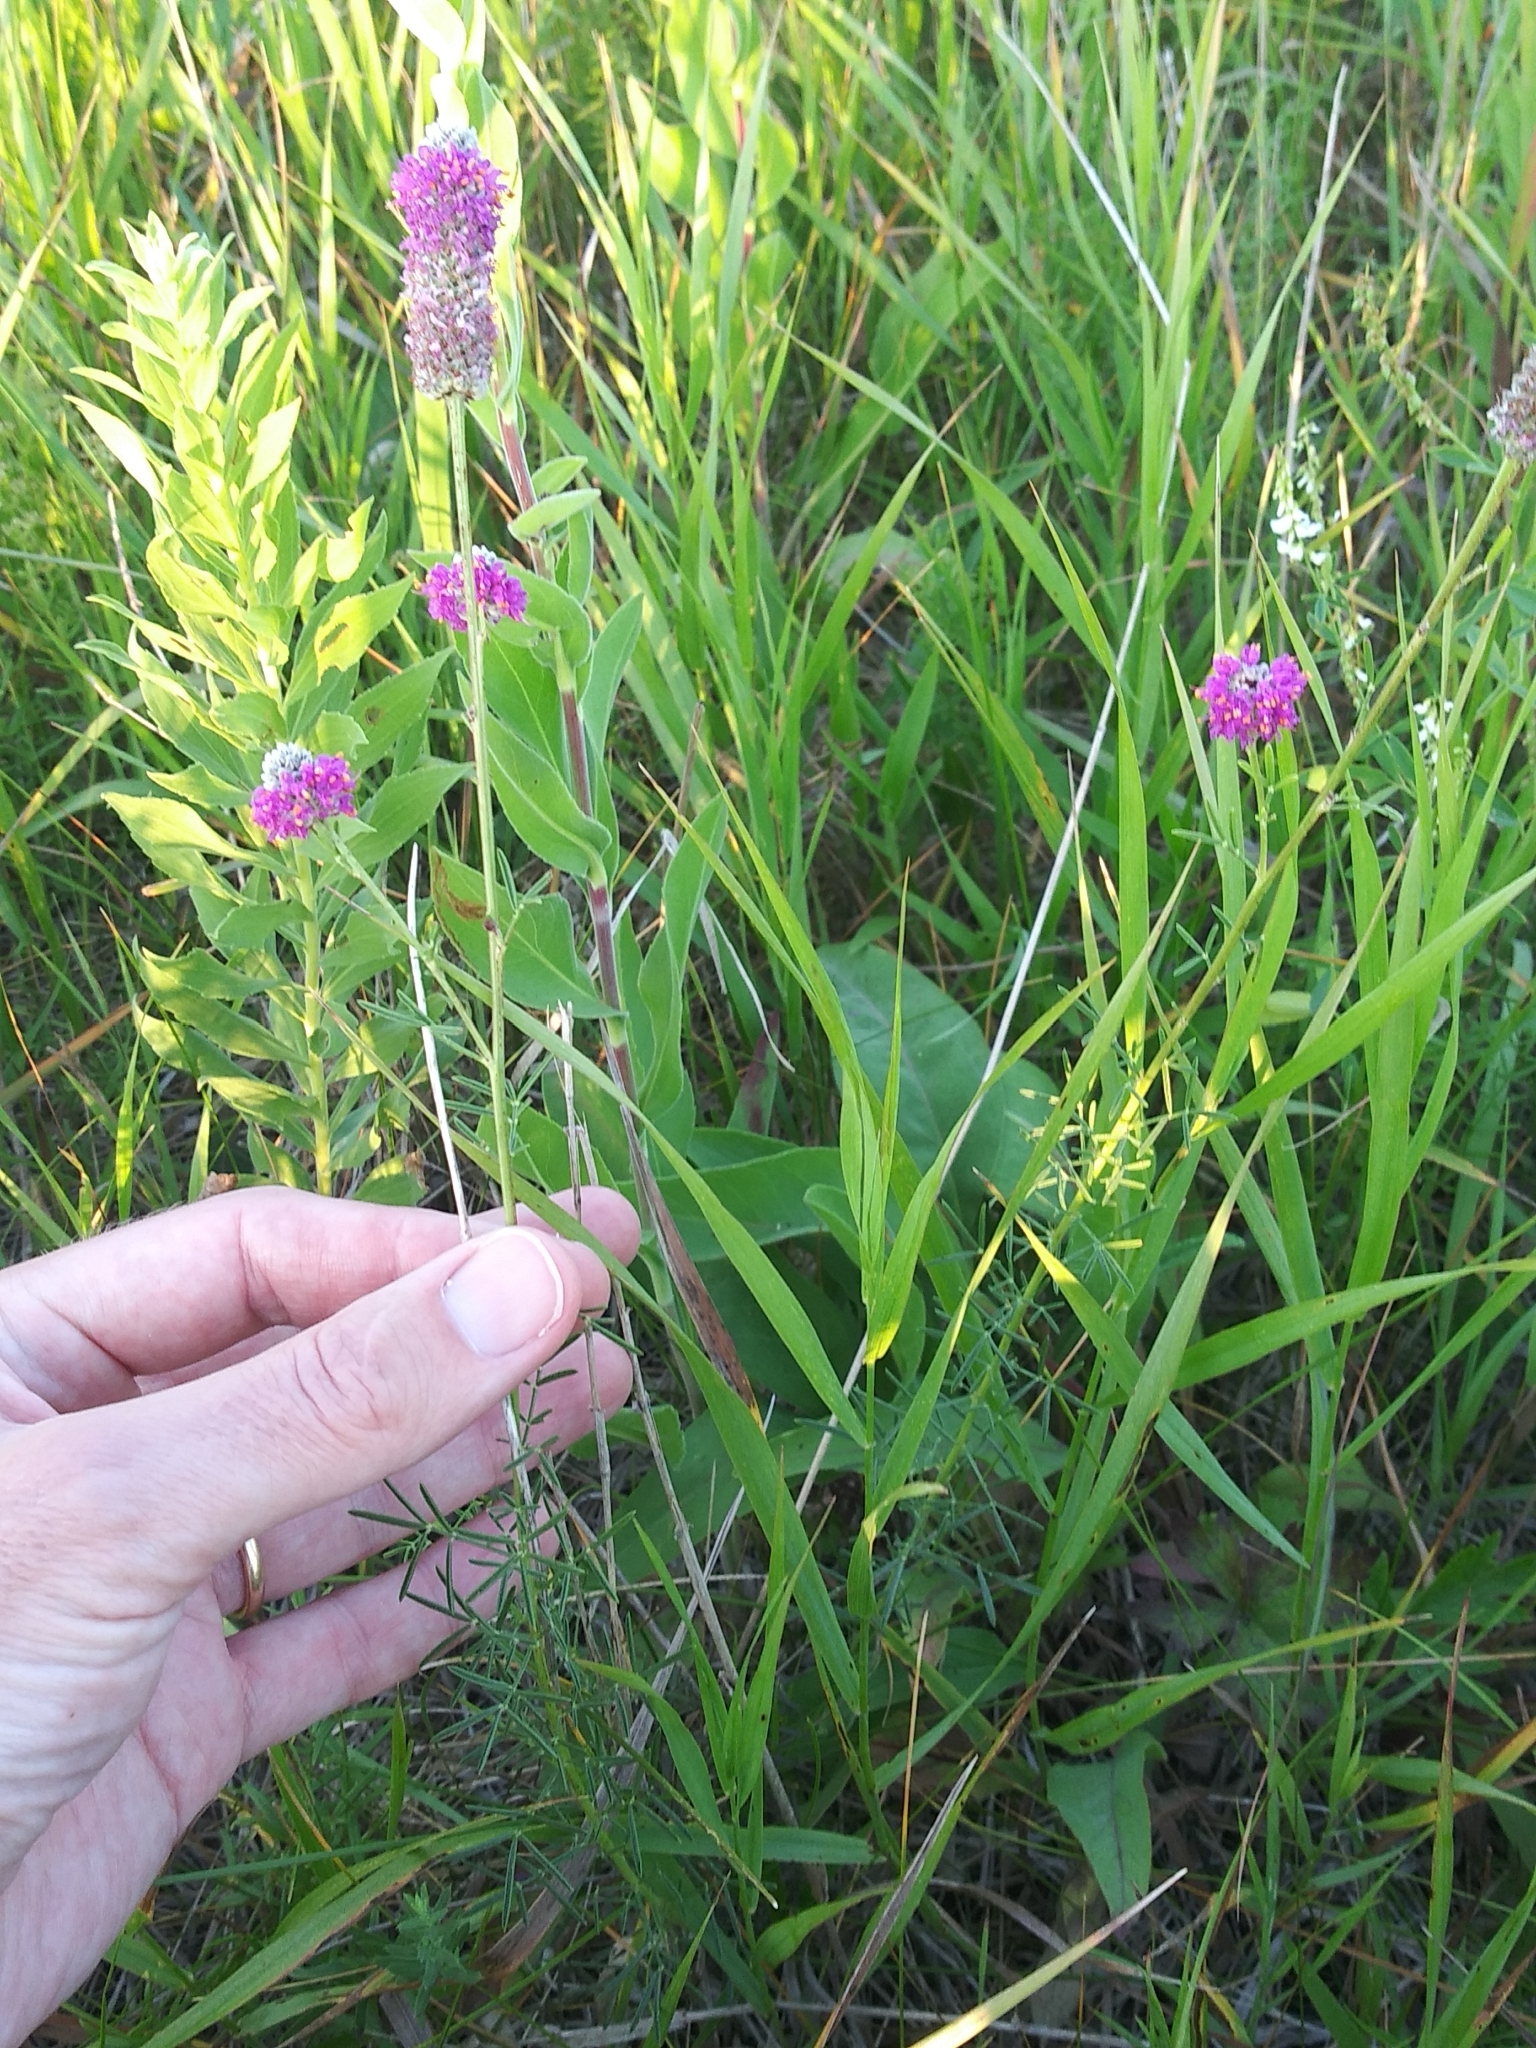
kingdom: Plantae
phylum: Tracheophyta
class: Magnoliopsida
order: Fabales
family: Fabaceae
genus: Dalea
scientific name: Dalea purpurea
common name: Purple prairie-clover
